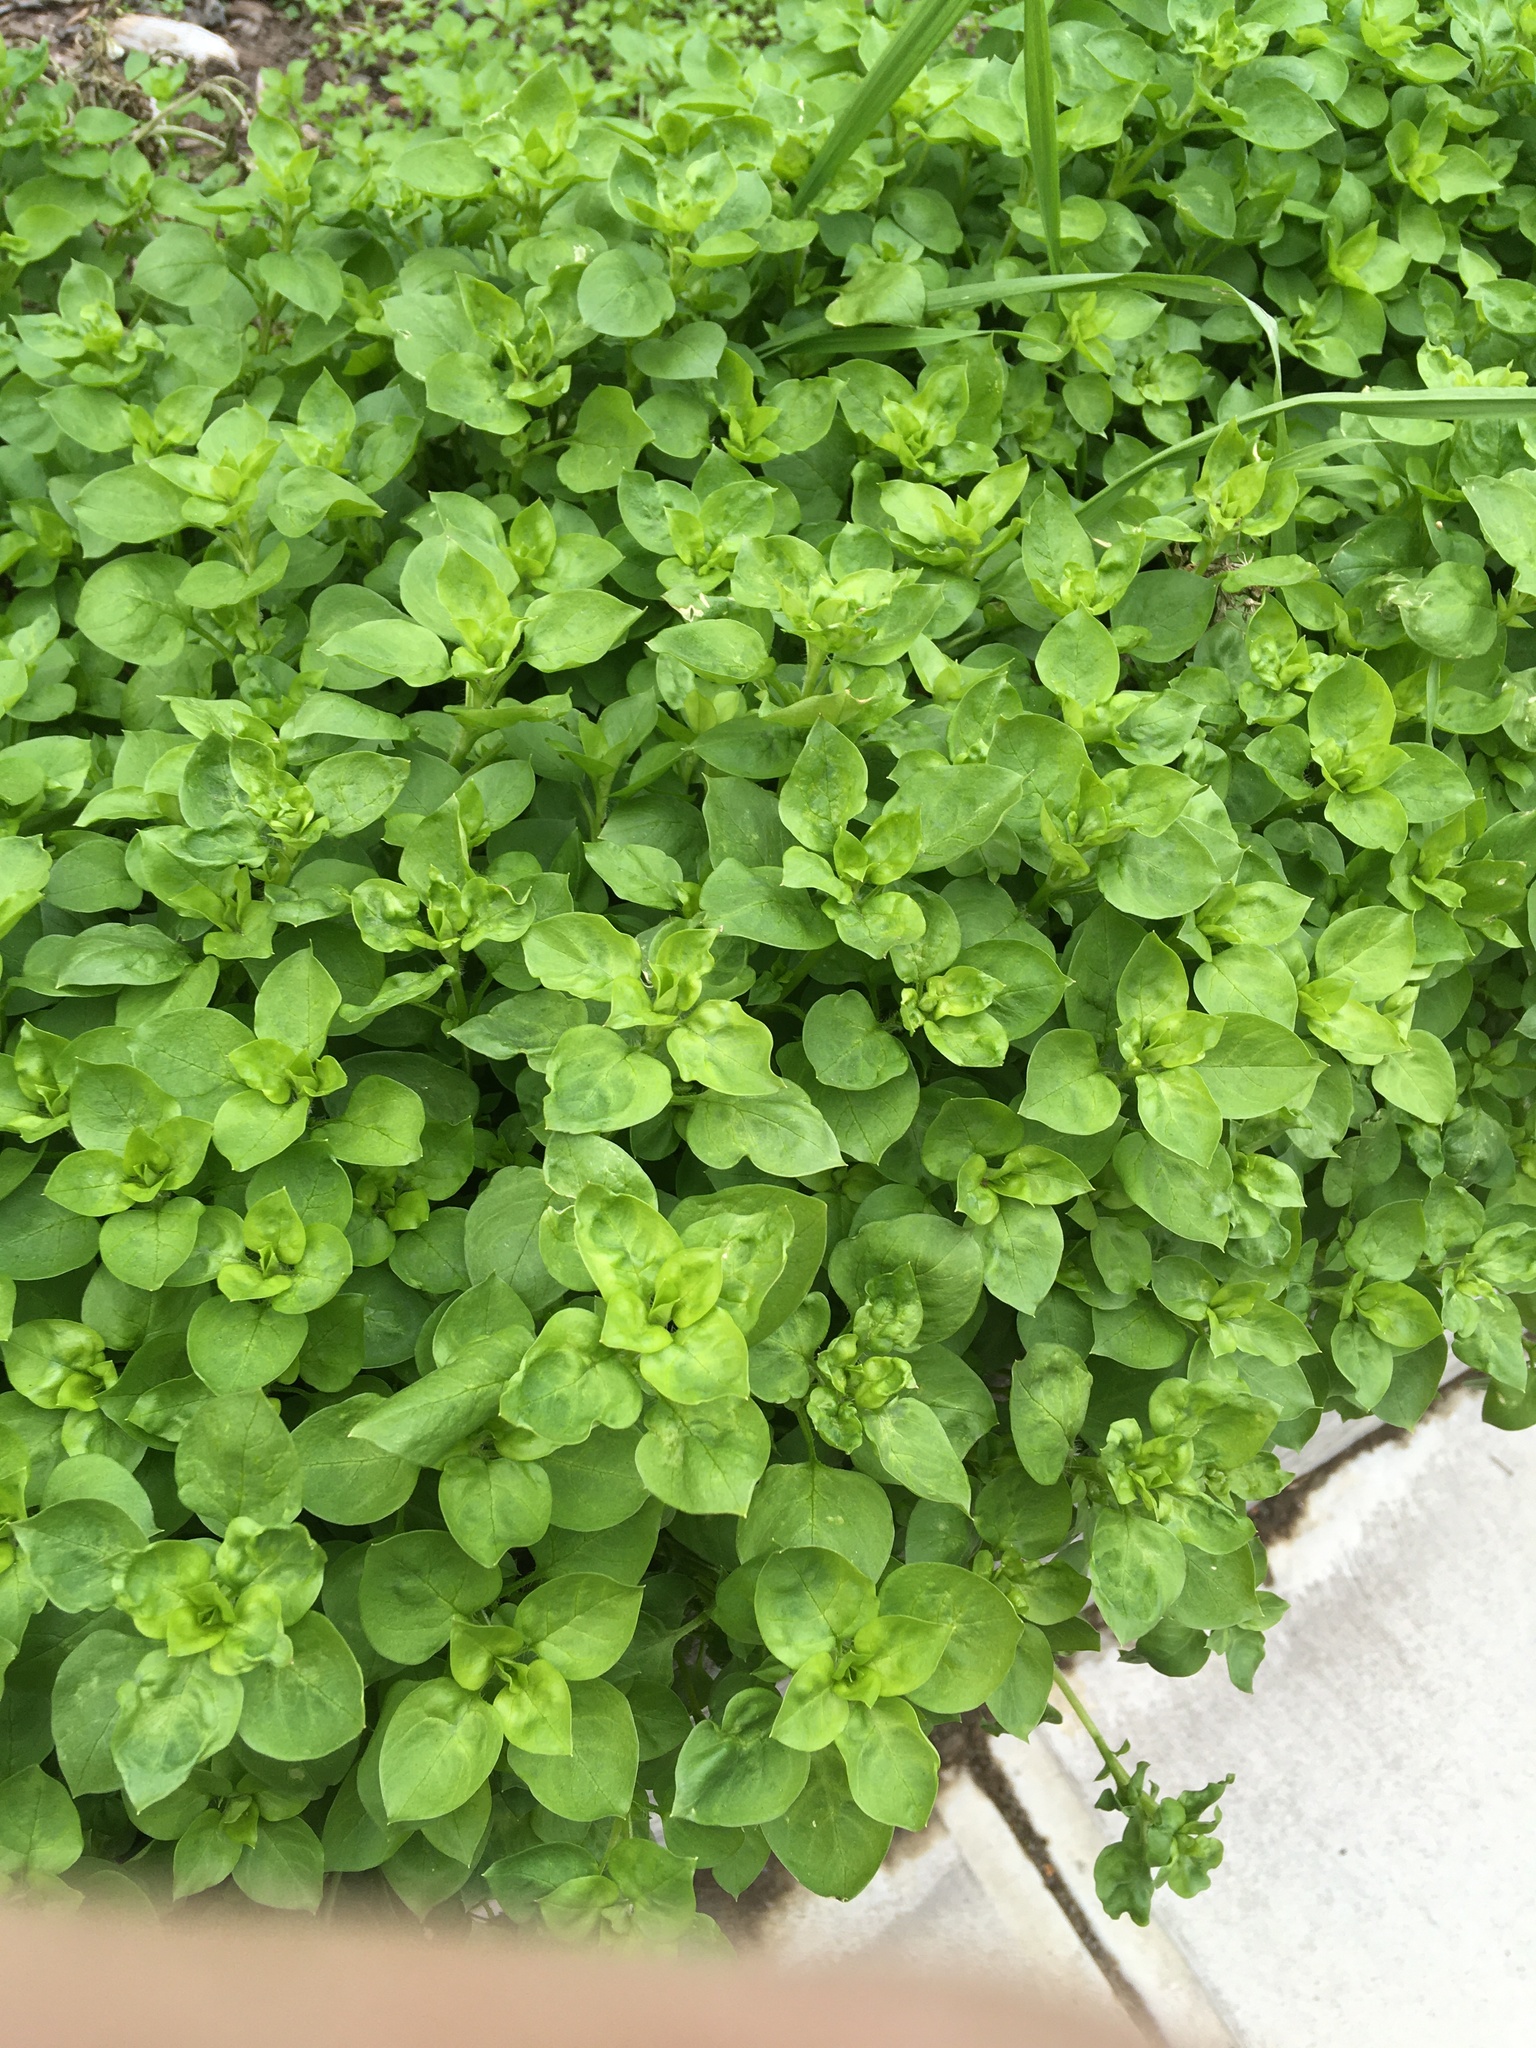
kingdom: Plantae
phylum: Tracheophyta
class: Magnoliopsida
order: Caryophyllales
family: Caryophyllaceae
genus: Stellaria
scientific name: Stellaria media
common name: Common chickweed
